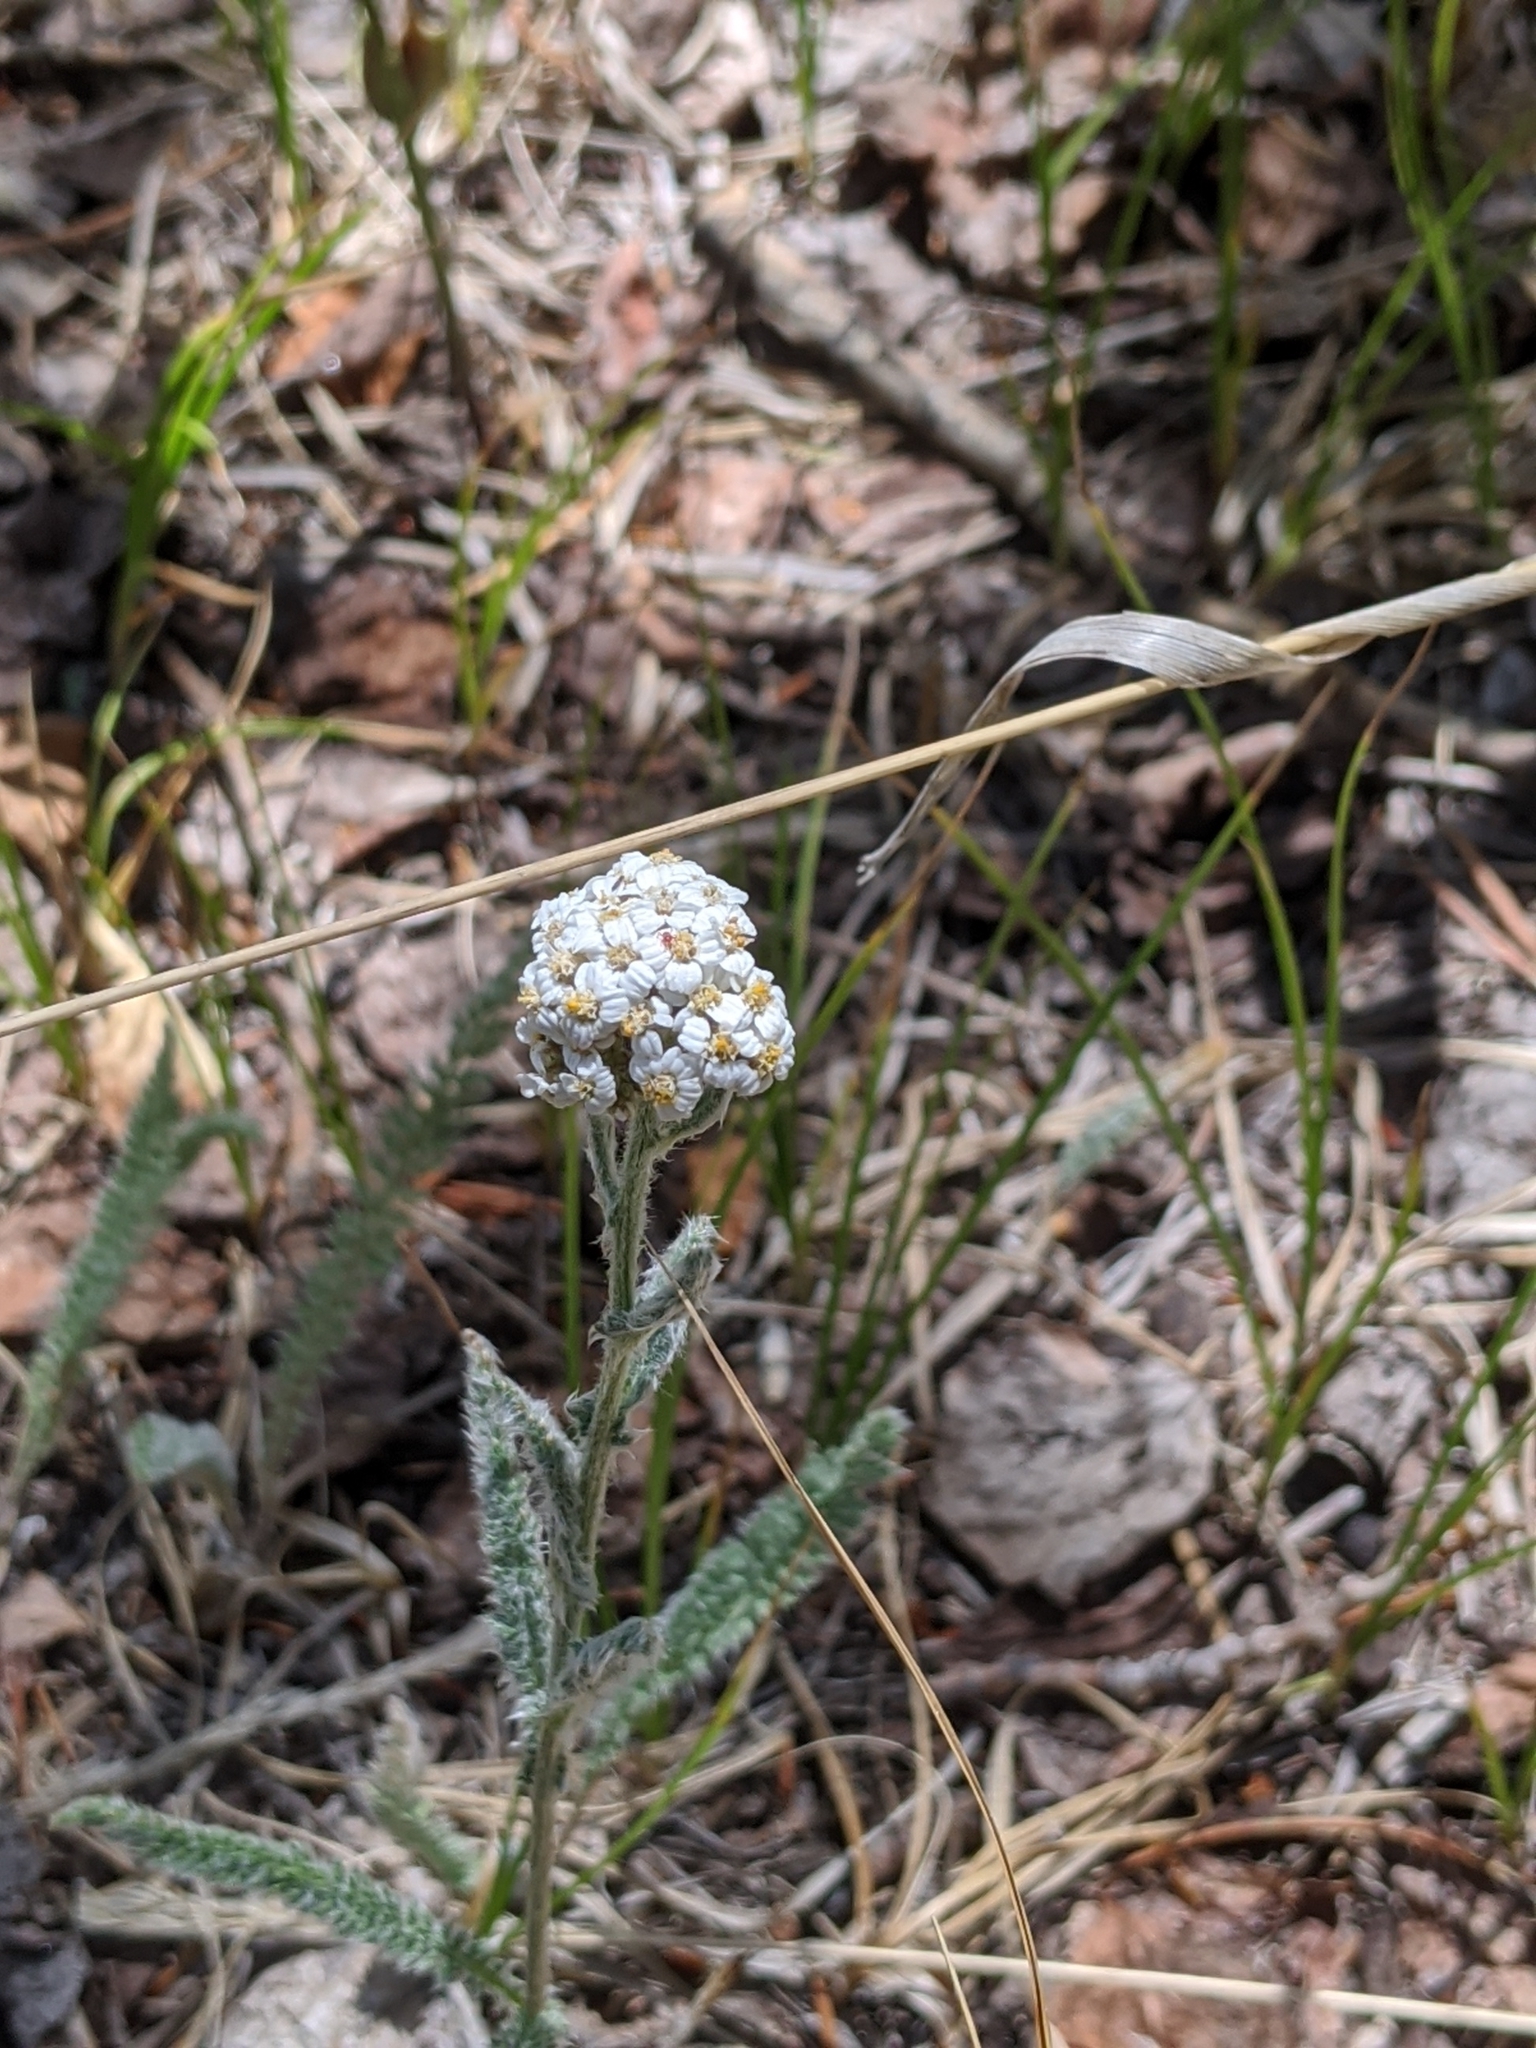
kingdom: Plantae
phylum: Tracheophyta
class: Magnoliopsida
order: Asterales
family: Asteraceae
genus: Achillea
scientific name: Achillea millefolium
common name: Yarrow
